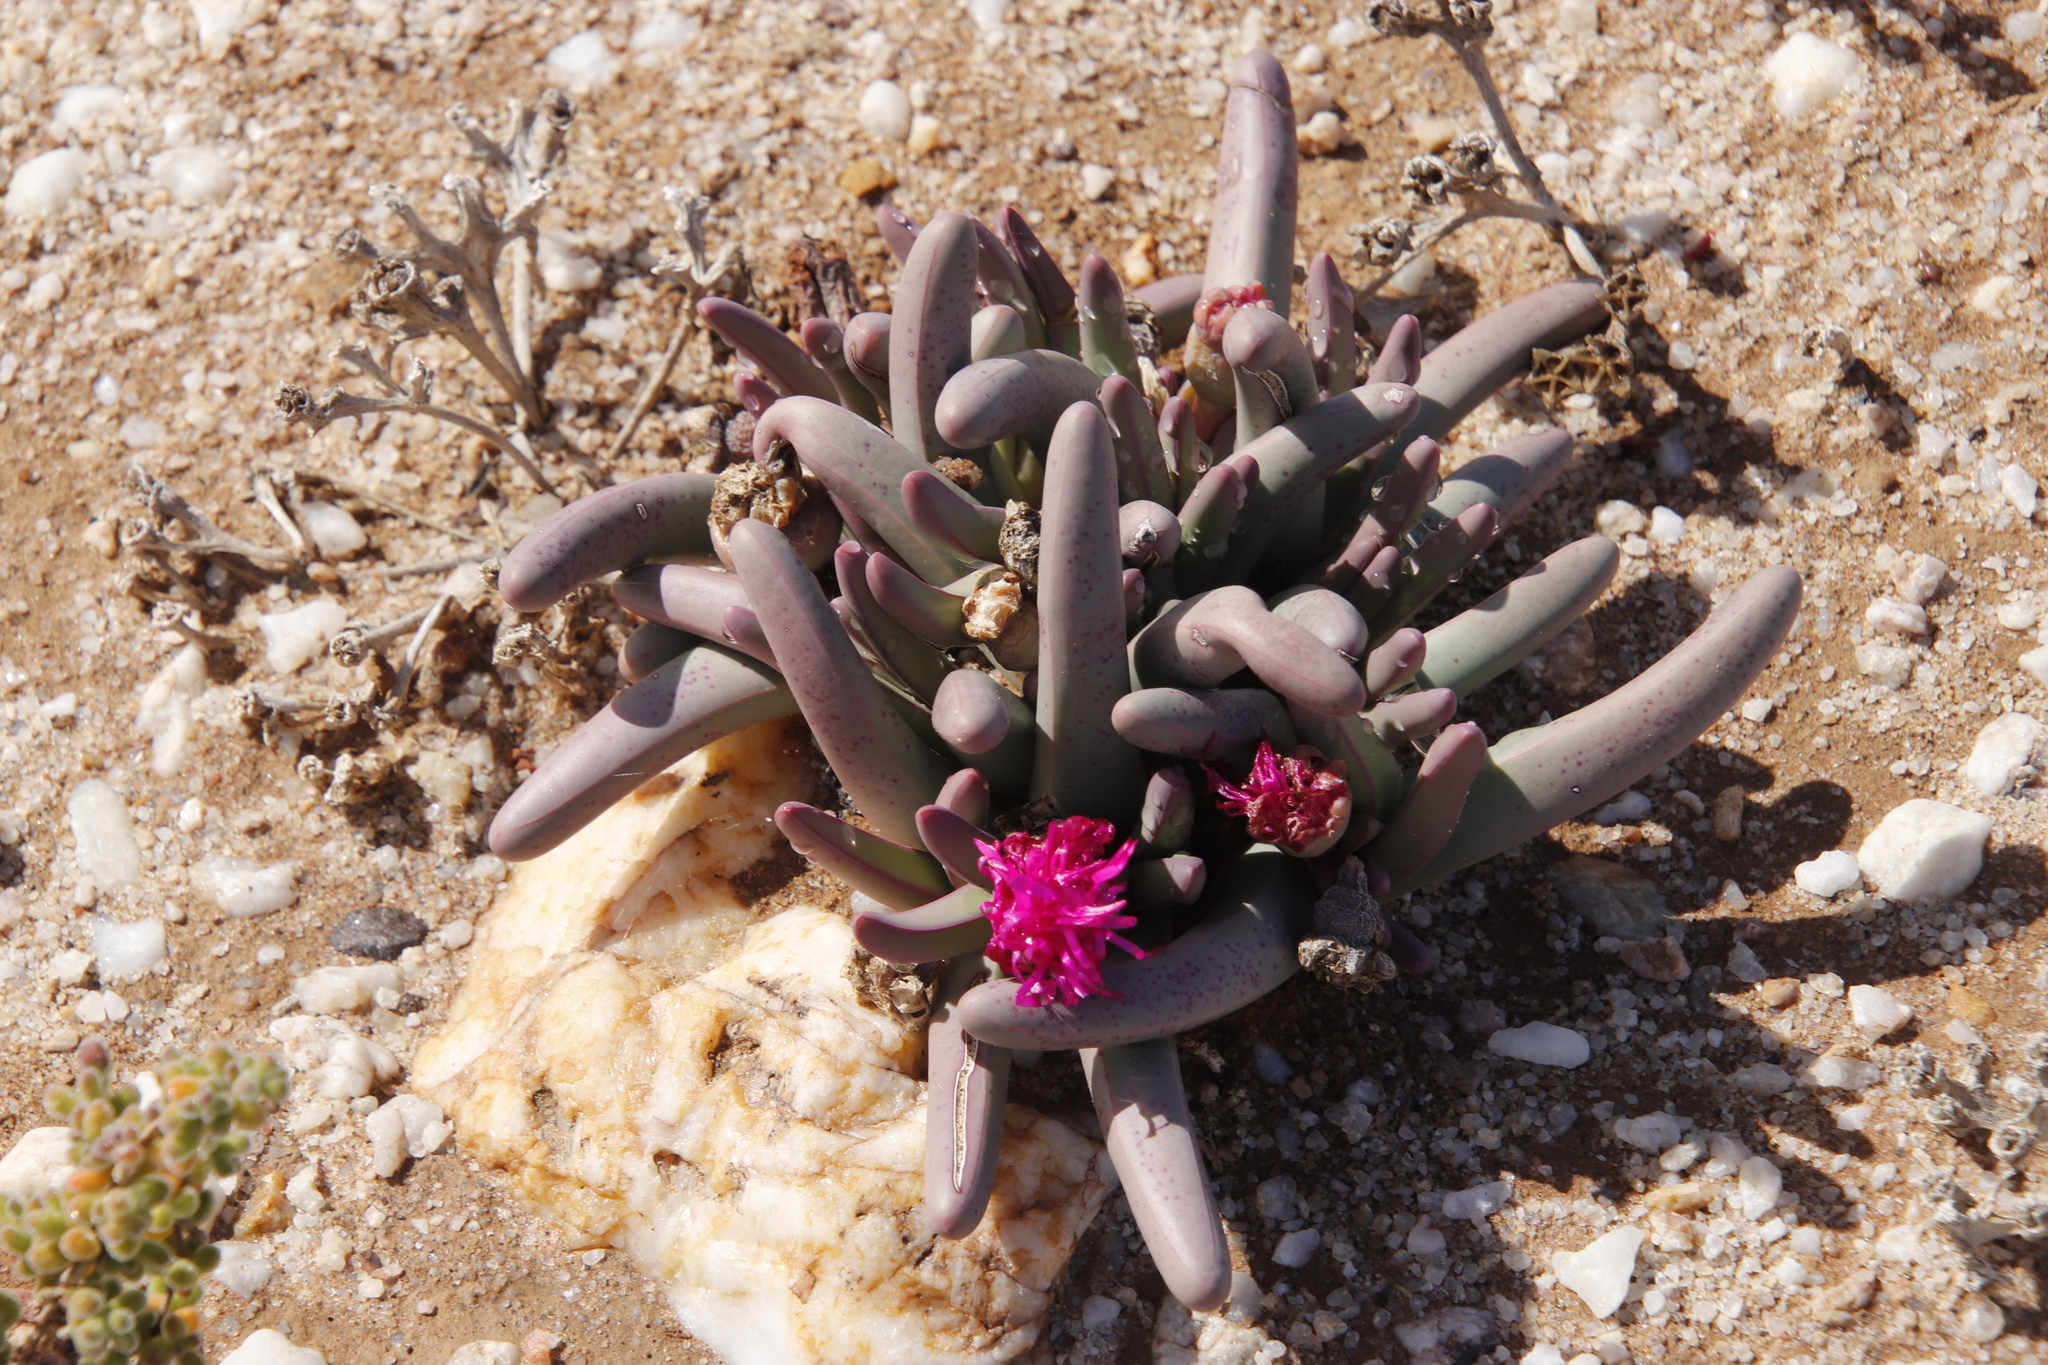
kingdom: Plantae
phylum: Tracheophyta
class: Magnoliopsida
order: Caryophyllales
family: Aizoaceae
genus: Argyroderma
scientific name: Argyroderma fissum
